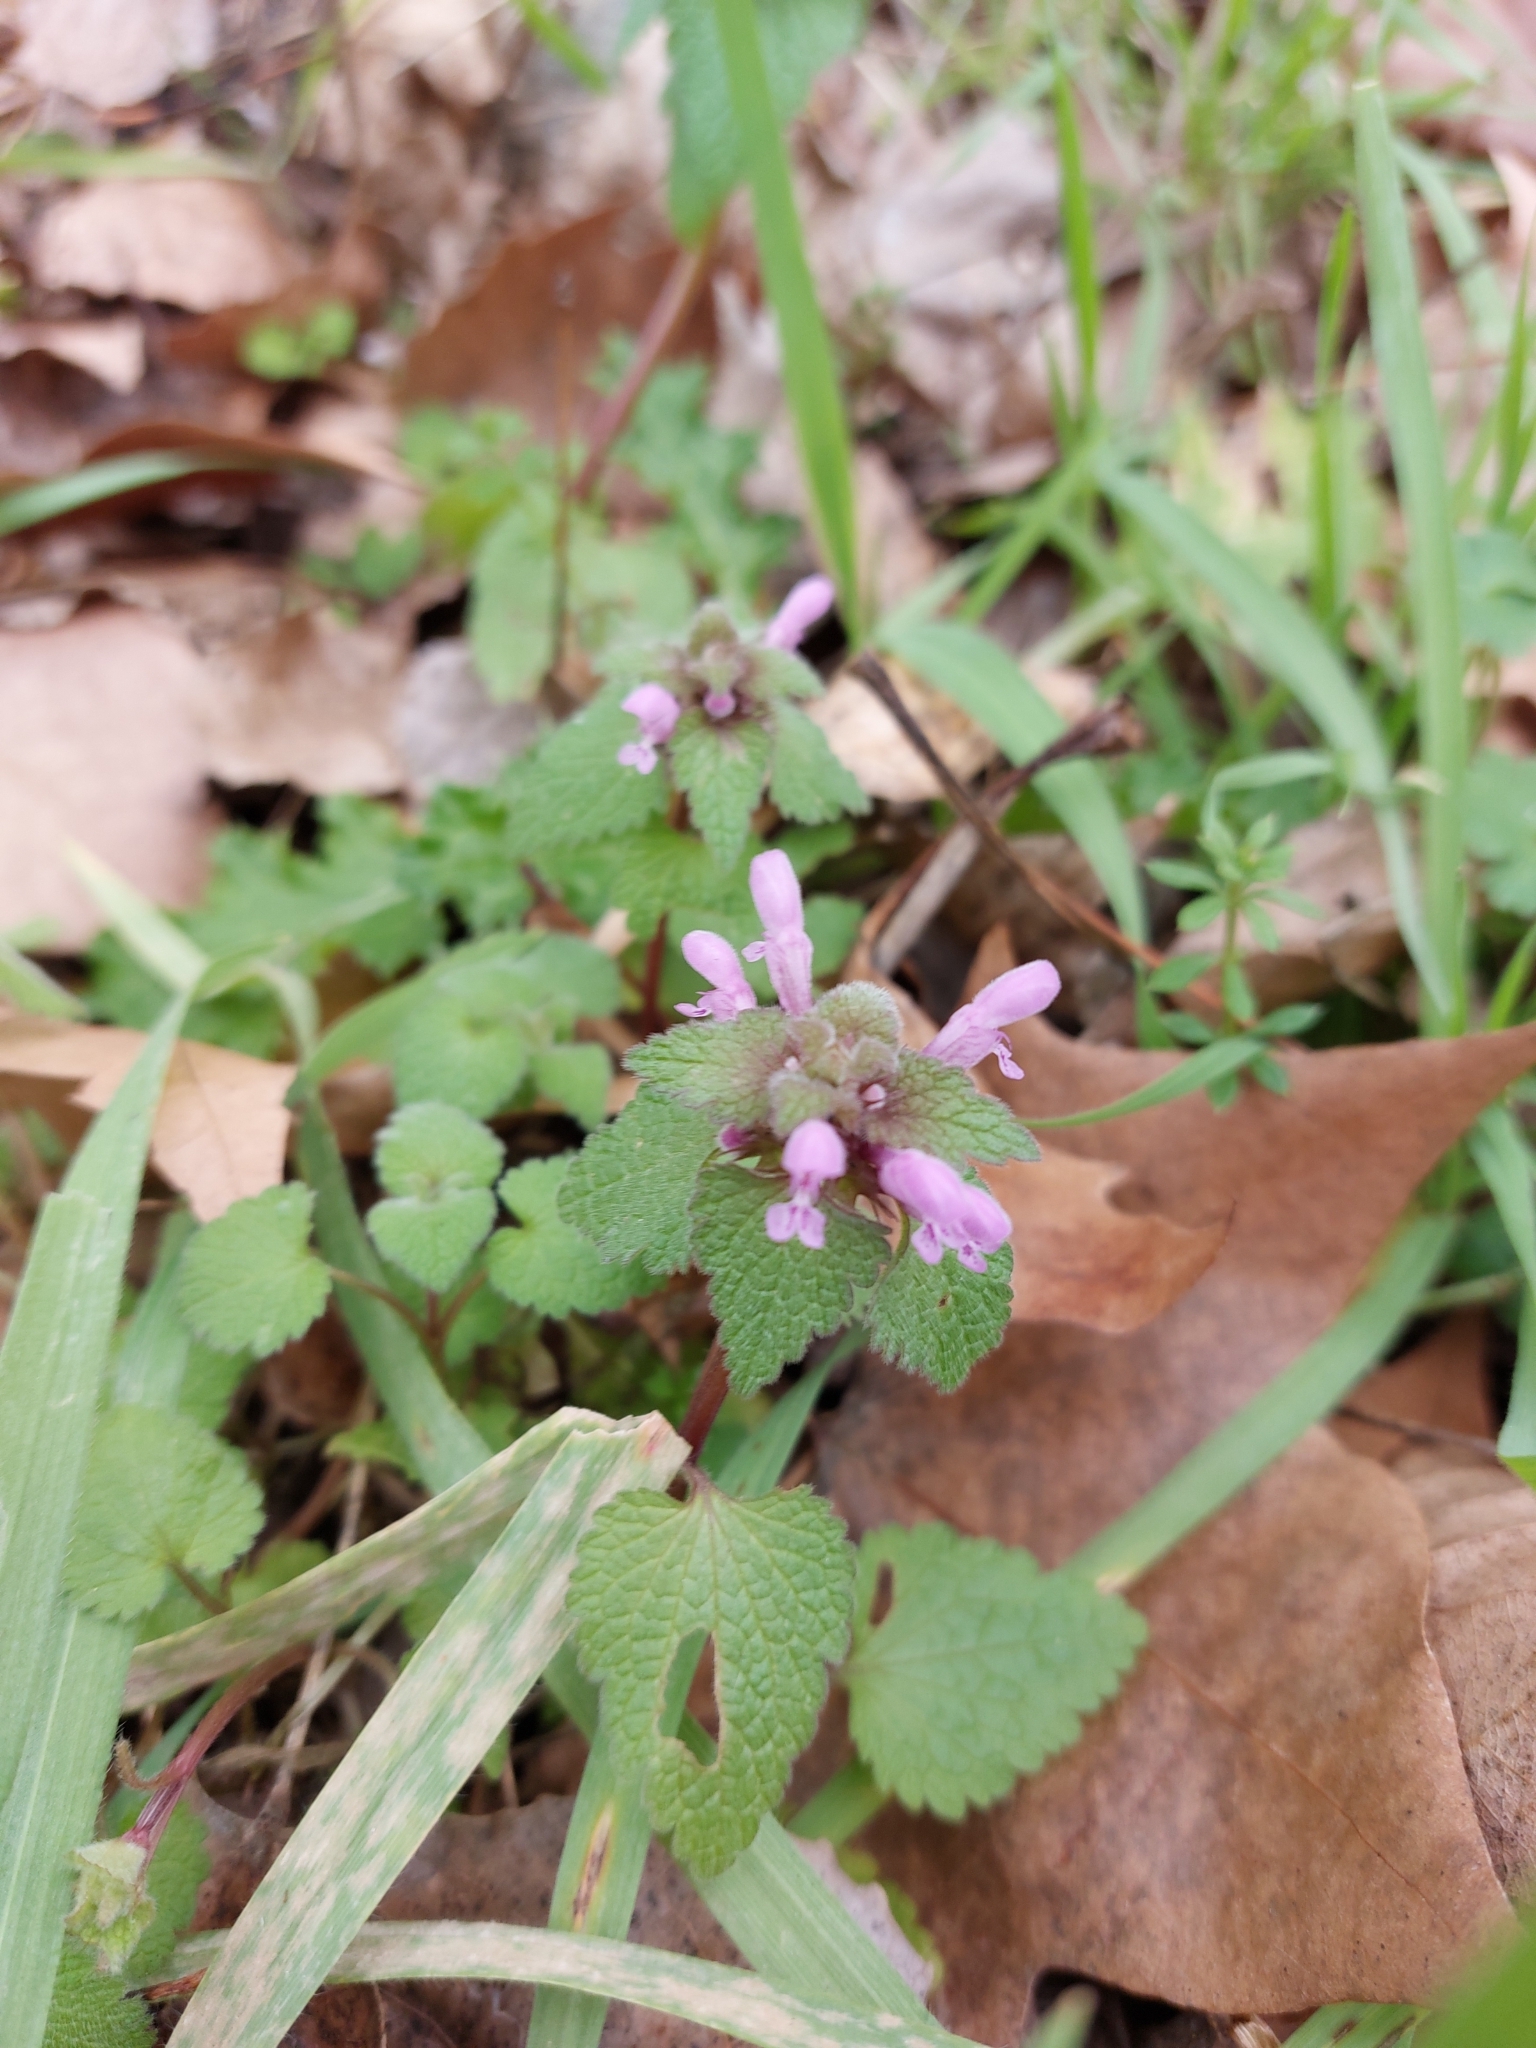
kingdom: Plantae
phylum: Tracheophyta
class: Magnoliopsida
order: Lamiales
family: Lamiaceae
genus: Lamium
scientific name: Lamium purpureum
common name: Red dead-nettle
